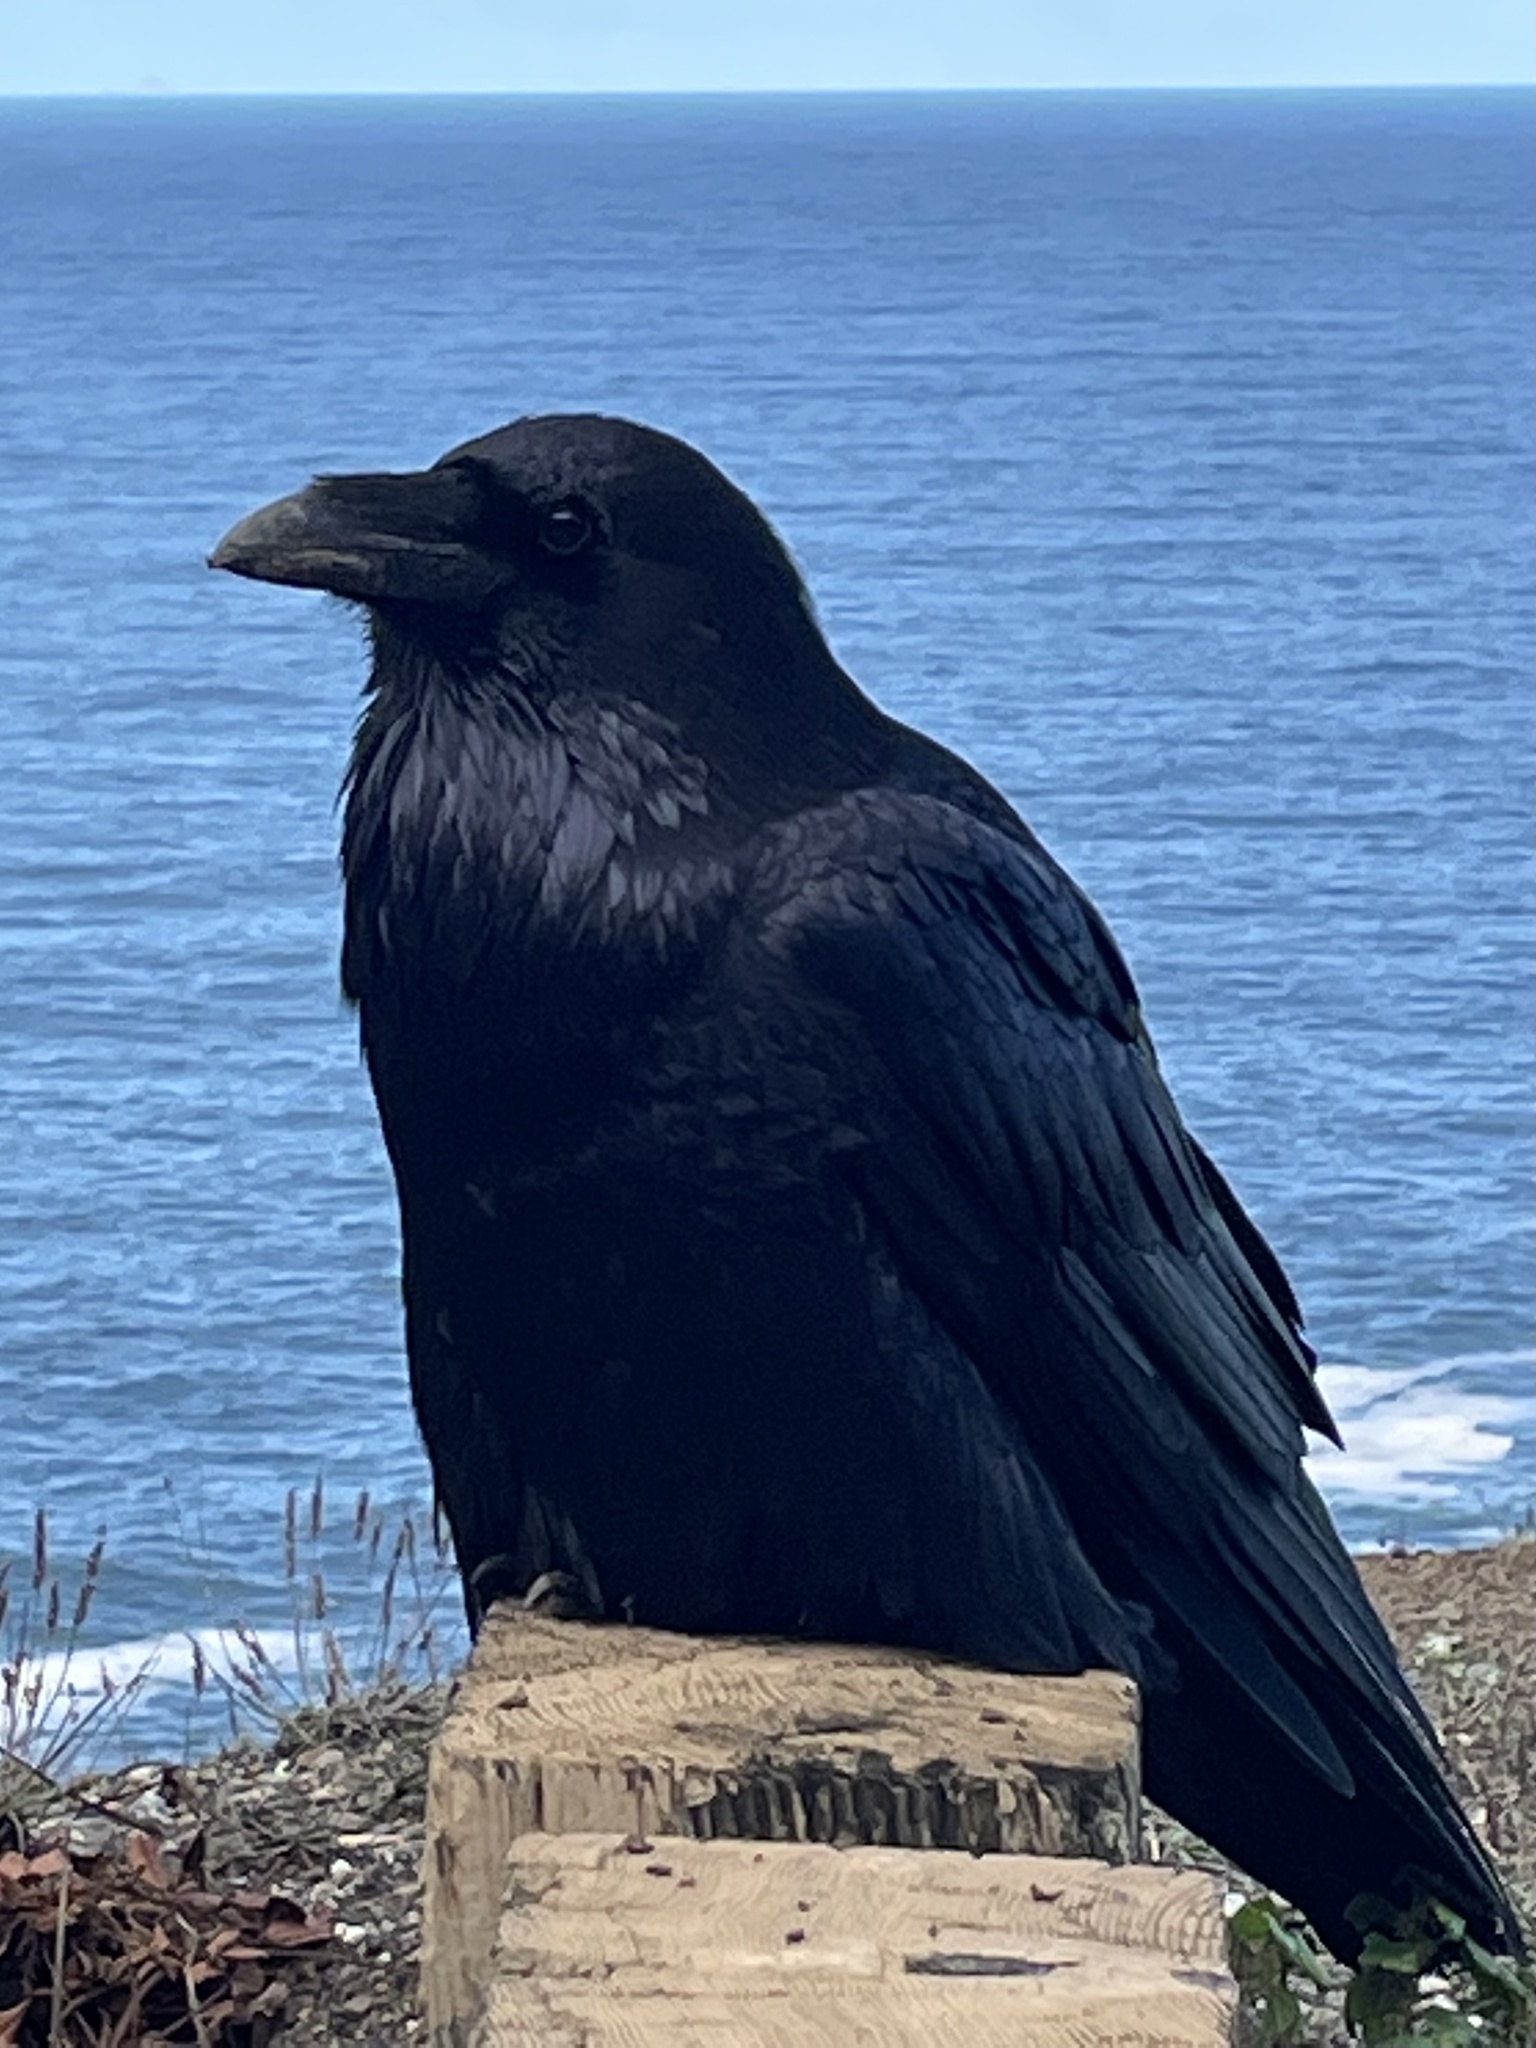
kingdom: Animalia
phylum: Chordata
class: Aves
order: Passeriformes
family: Corvidae
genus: Corvus
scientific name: Corvus corax
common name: Common raven
